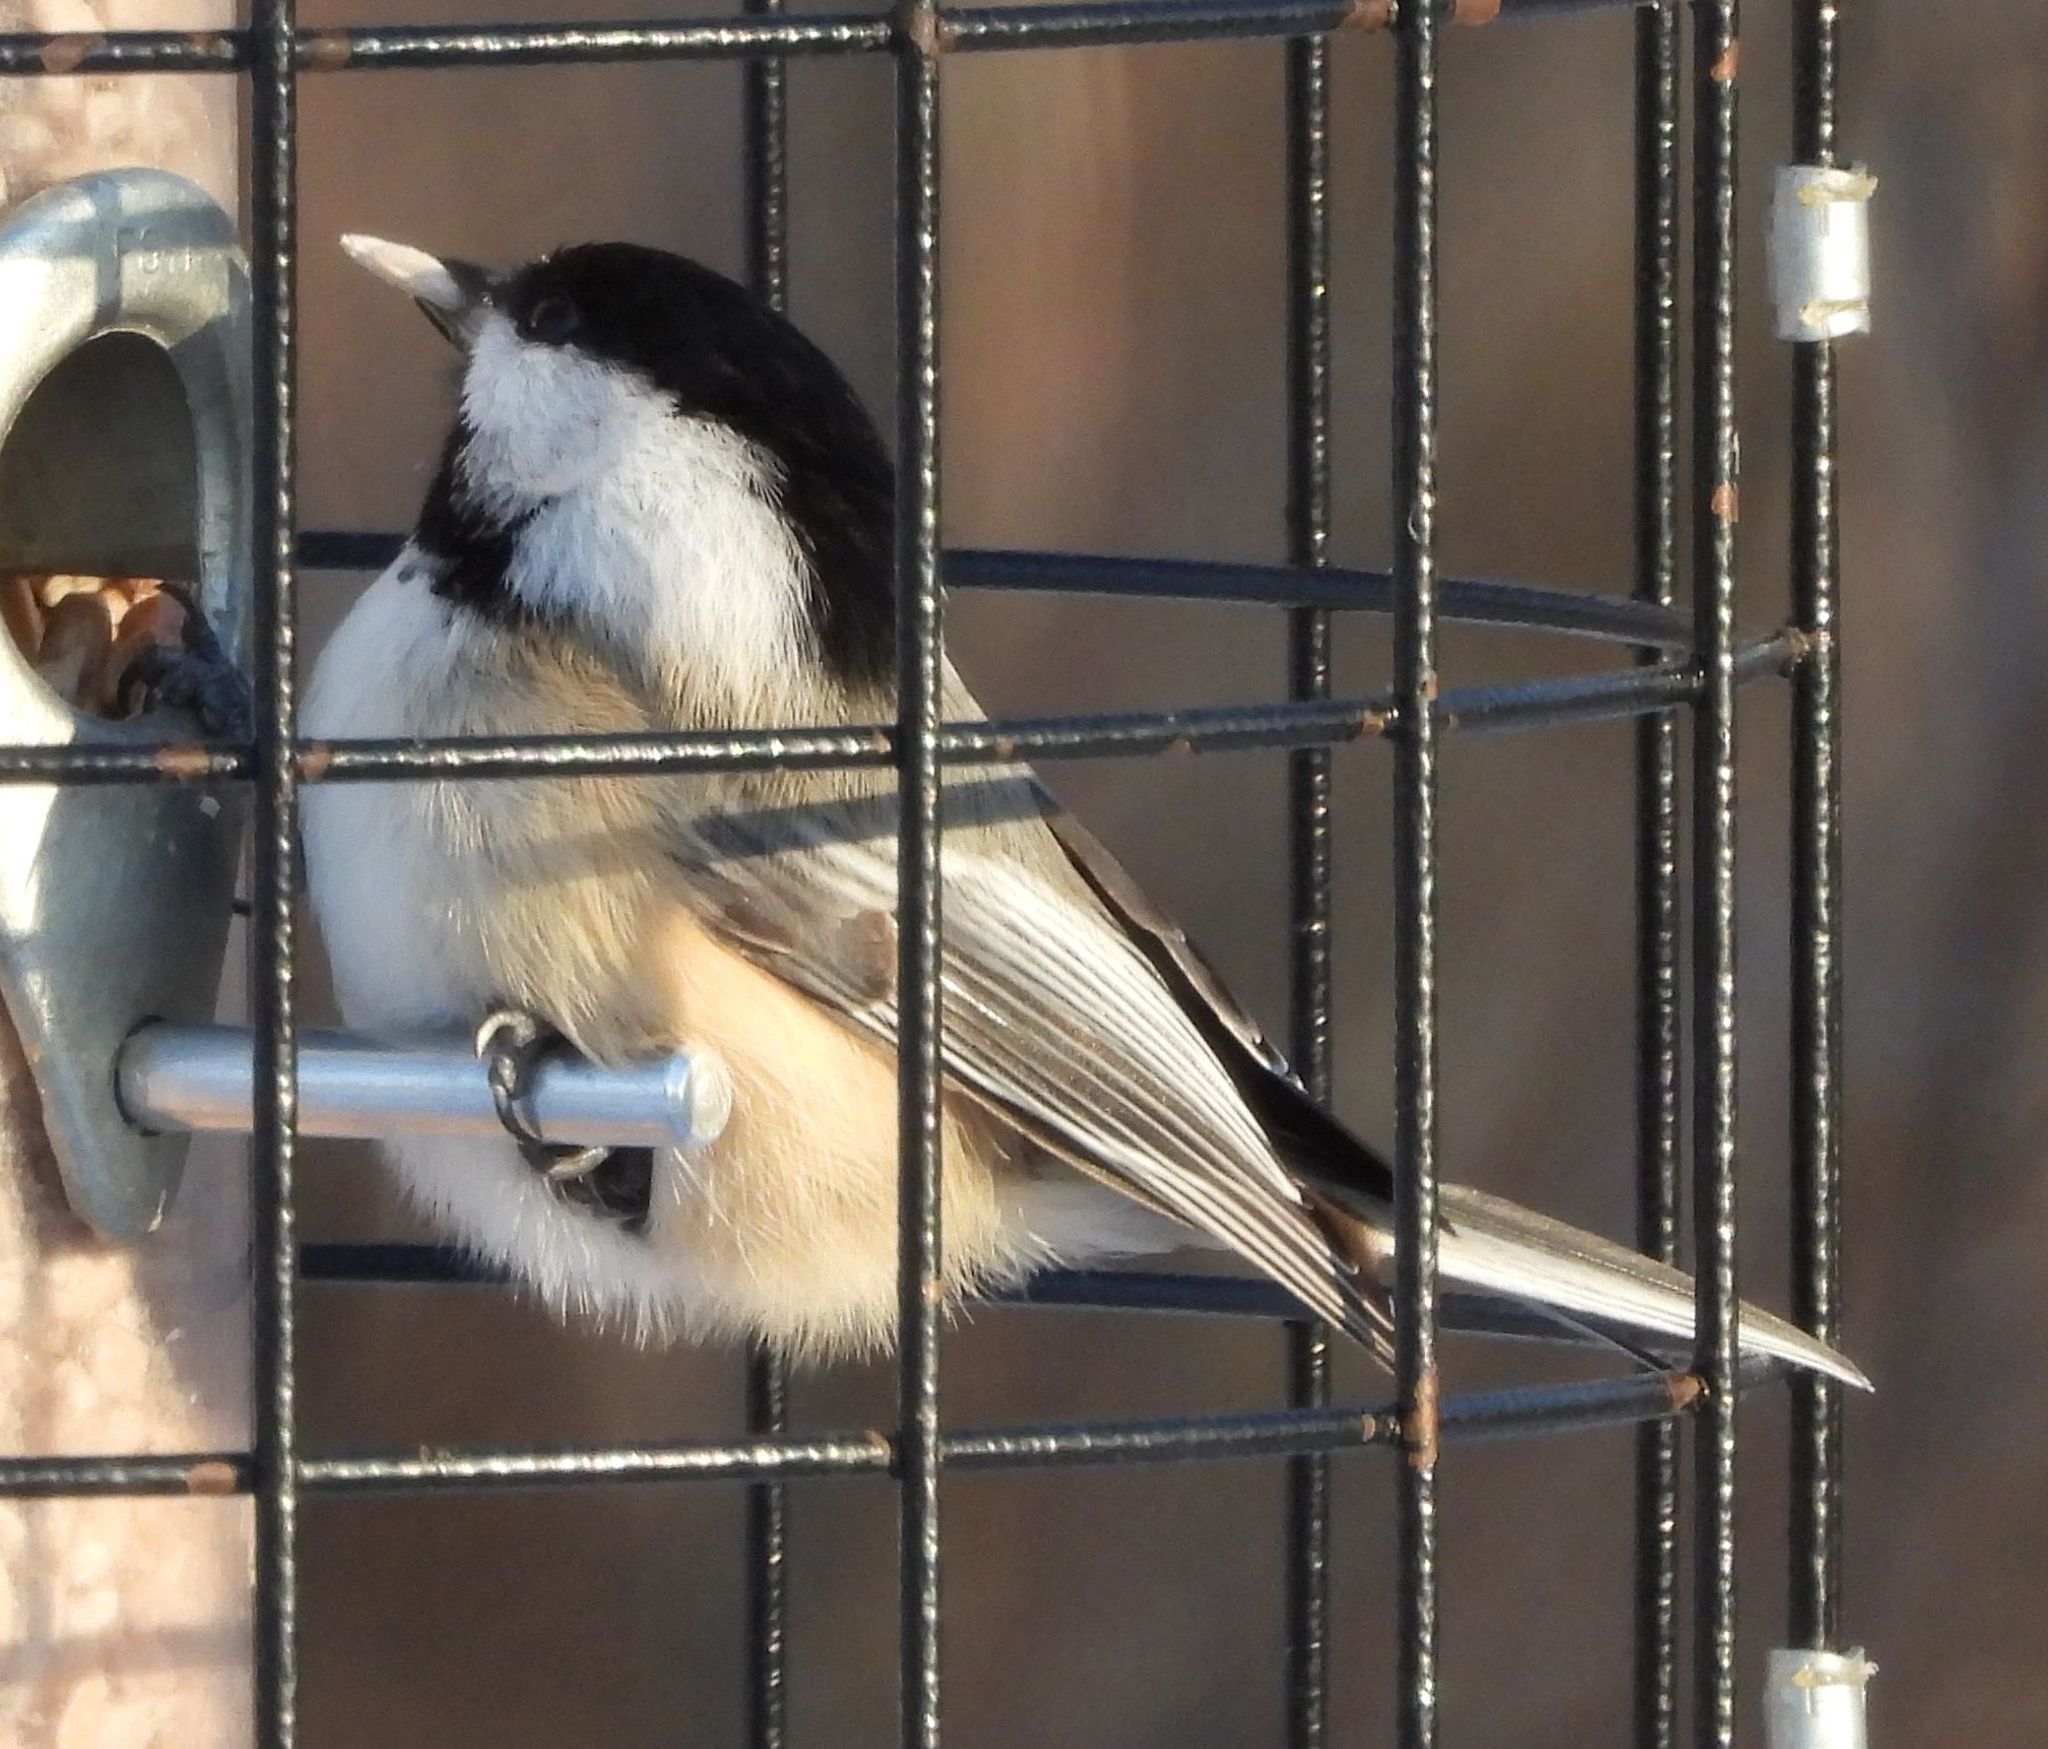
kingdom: Animalia
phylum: Chordata
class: Aves
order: Passeriformes
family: Paridae
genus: Poecile
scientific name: Poecile atricapillus
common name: Black-capped chickadee
